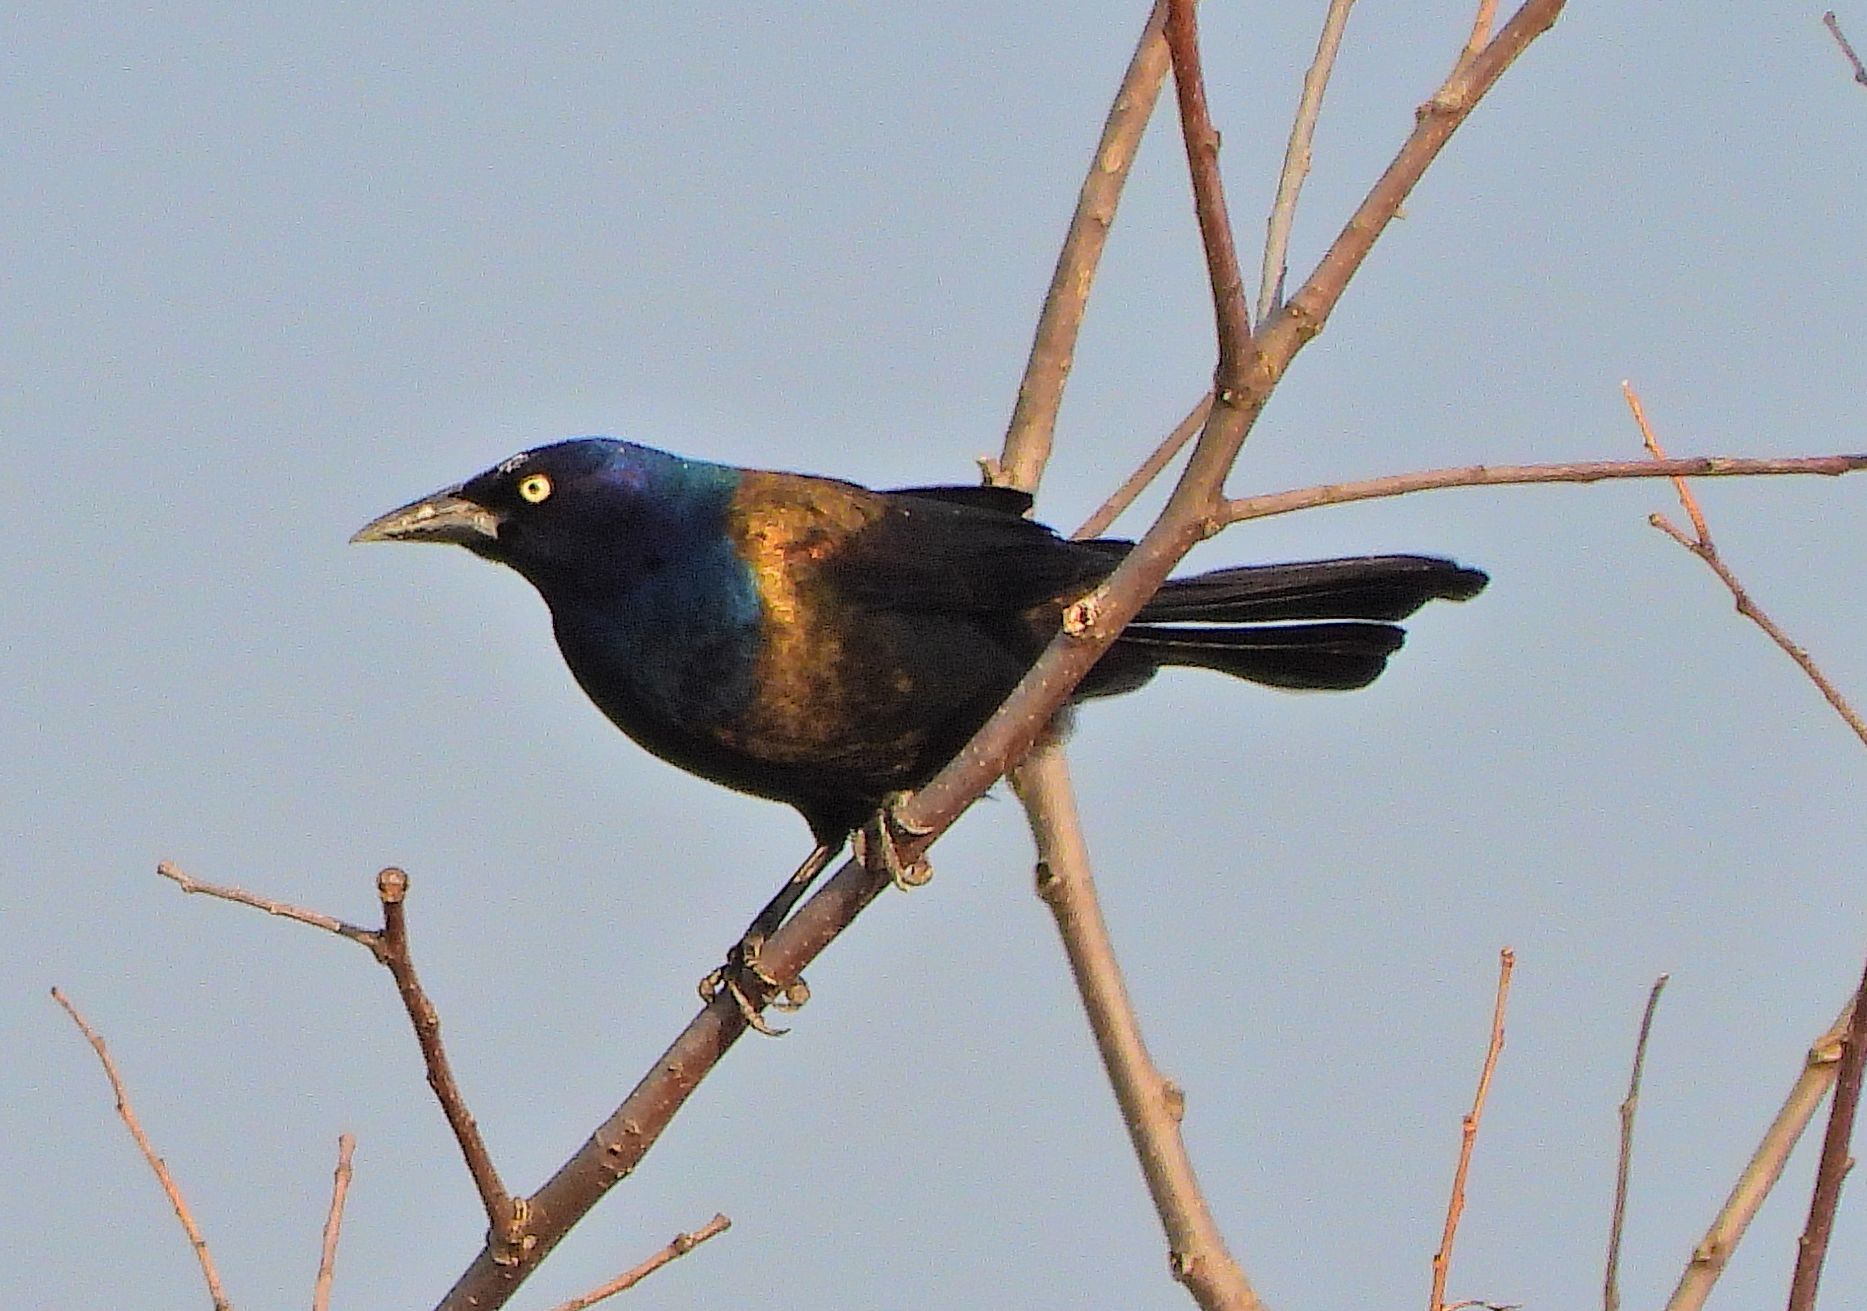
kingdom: Animalia
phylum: Chordata
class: Aves
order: Passeriformes
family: Icteridae
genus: Quiscalus
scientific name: Quiscalus quiscula
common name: Common grackle
